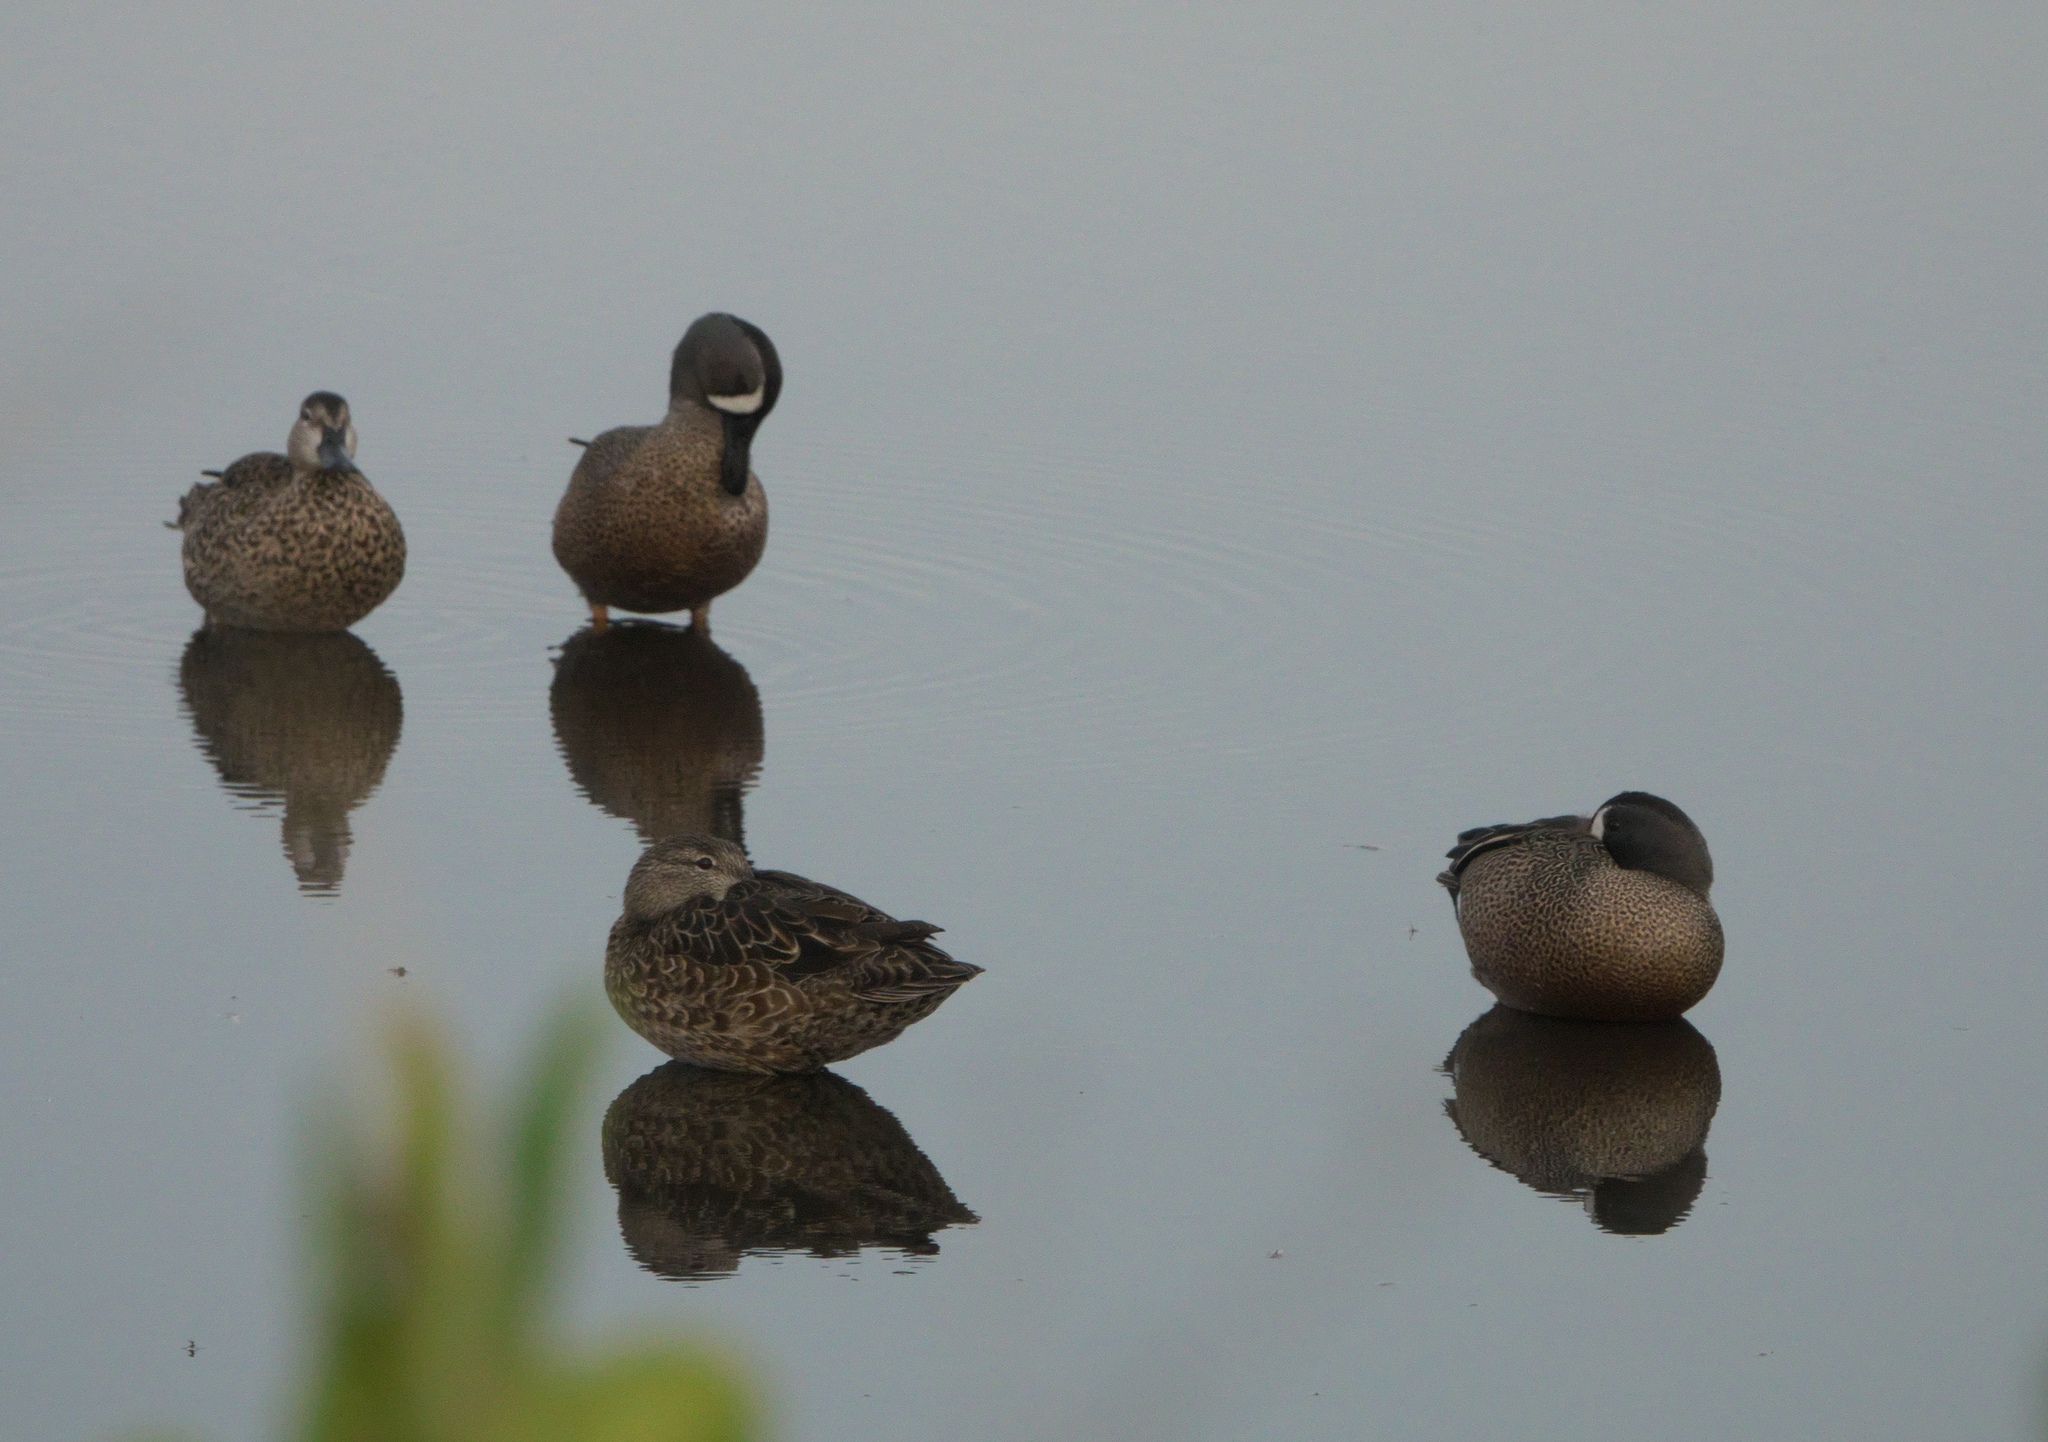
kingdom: Animalia
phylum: Chordata
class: Aves
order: Anseriformes
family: Anatidae
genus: Spatula
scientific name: Spatula discors
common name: Blue-winged teal
